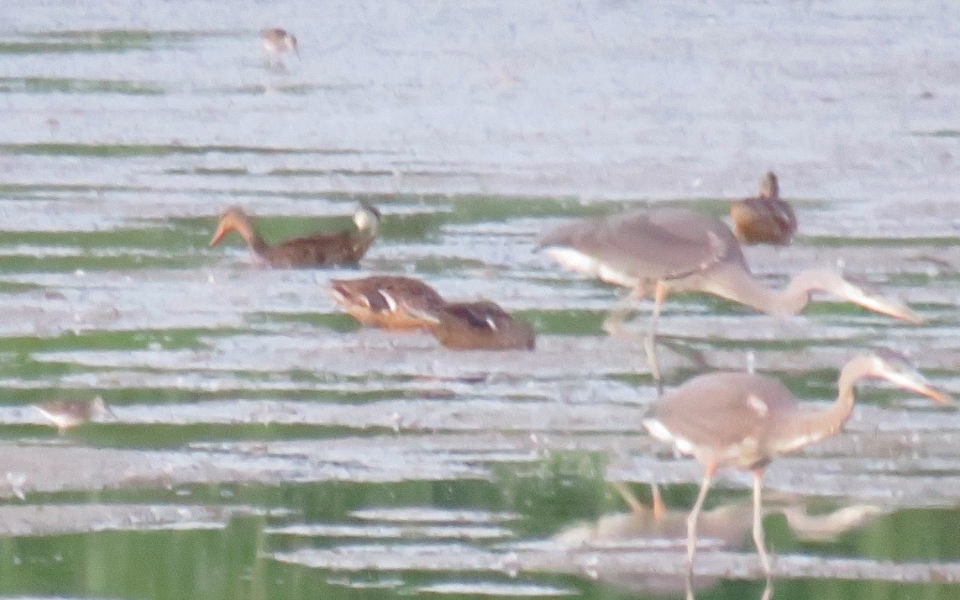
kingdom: Animalia
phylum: Chordata
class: Aves
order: Anseriformes
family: Anatidae
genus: Anas
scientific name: Anas diazi
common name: Mexican duck
